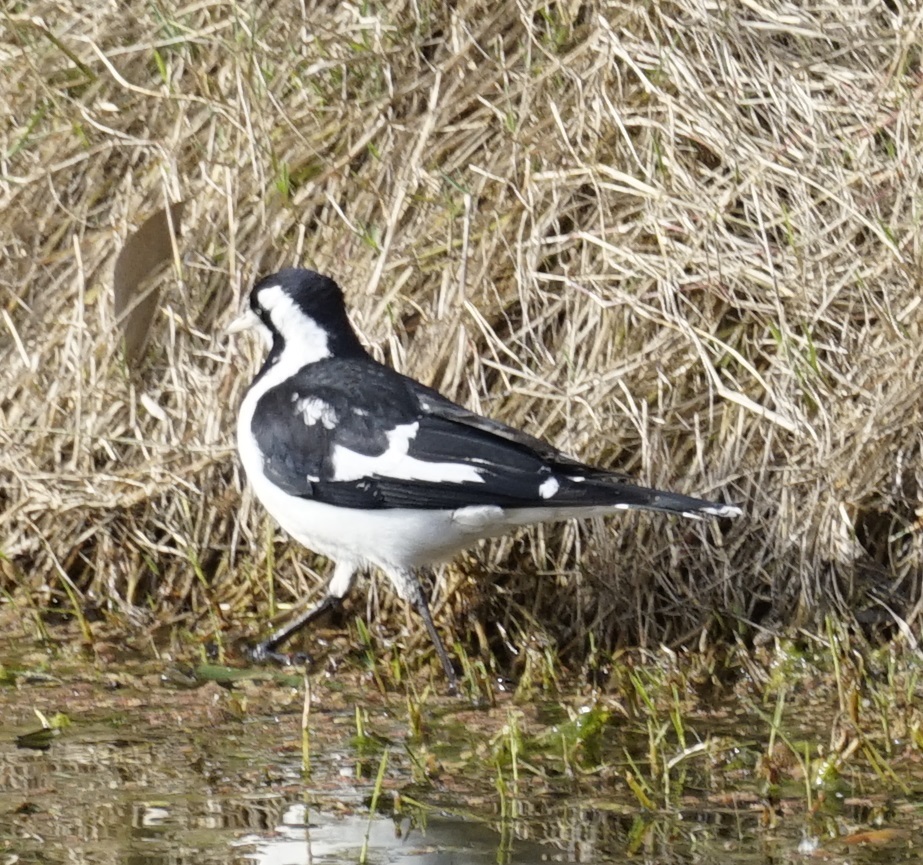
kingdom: Animalia
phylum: Chordata
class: Aves
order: Passeriformes
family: Monarchidae
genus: Grallina
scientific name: Grallina cyanoleuca
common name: Magpie-lark
